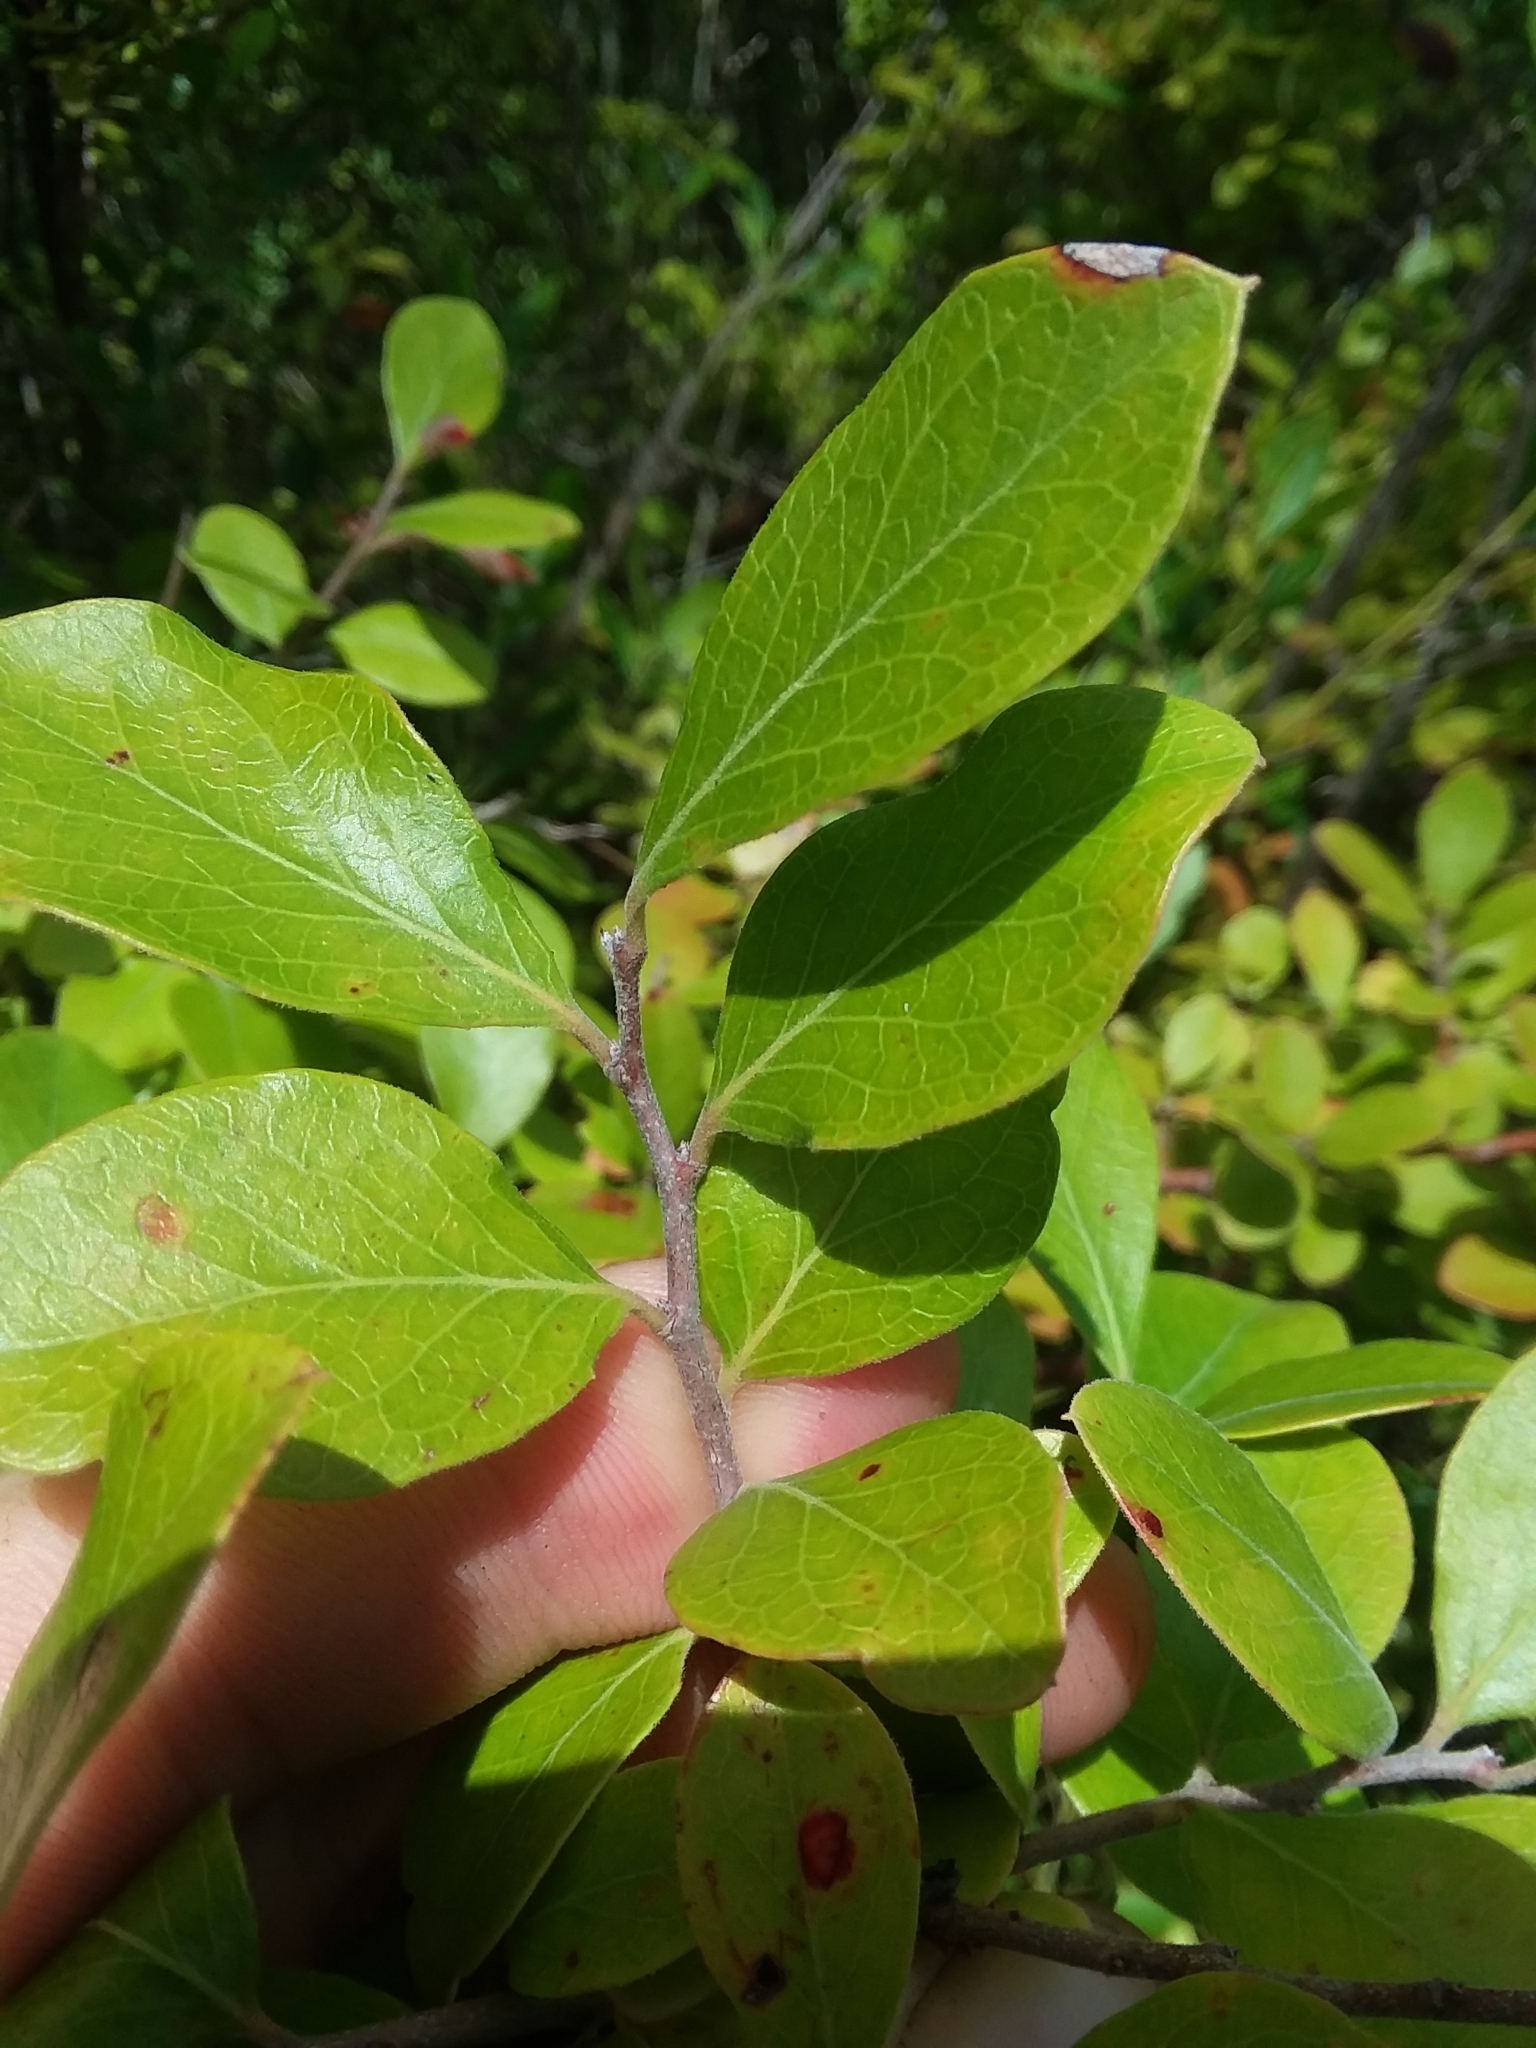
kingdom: Plantae
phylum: Tracheophyta
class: Magnoliopsida
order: Ericales
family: Ericaceae
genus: Vaccinium
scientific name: Vaccinium arboreum
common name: Farkleberry
